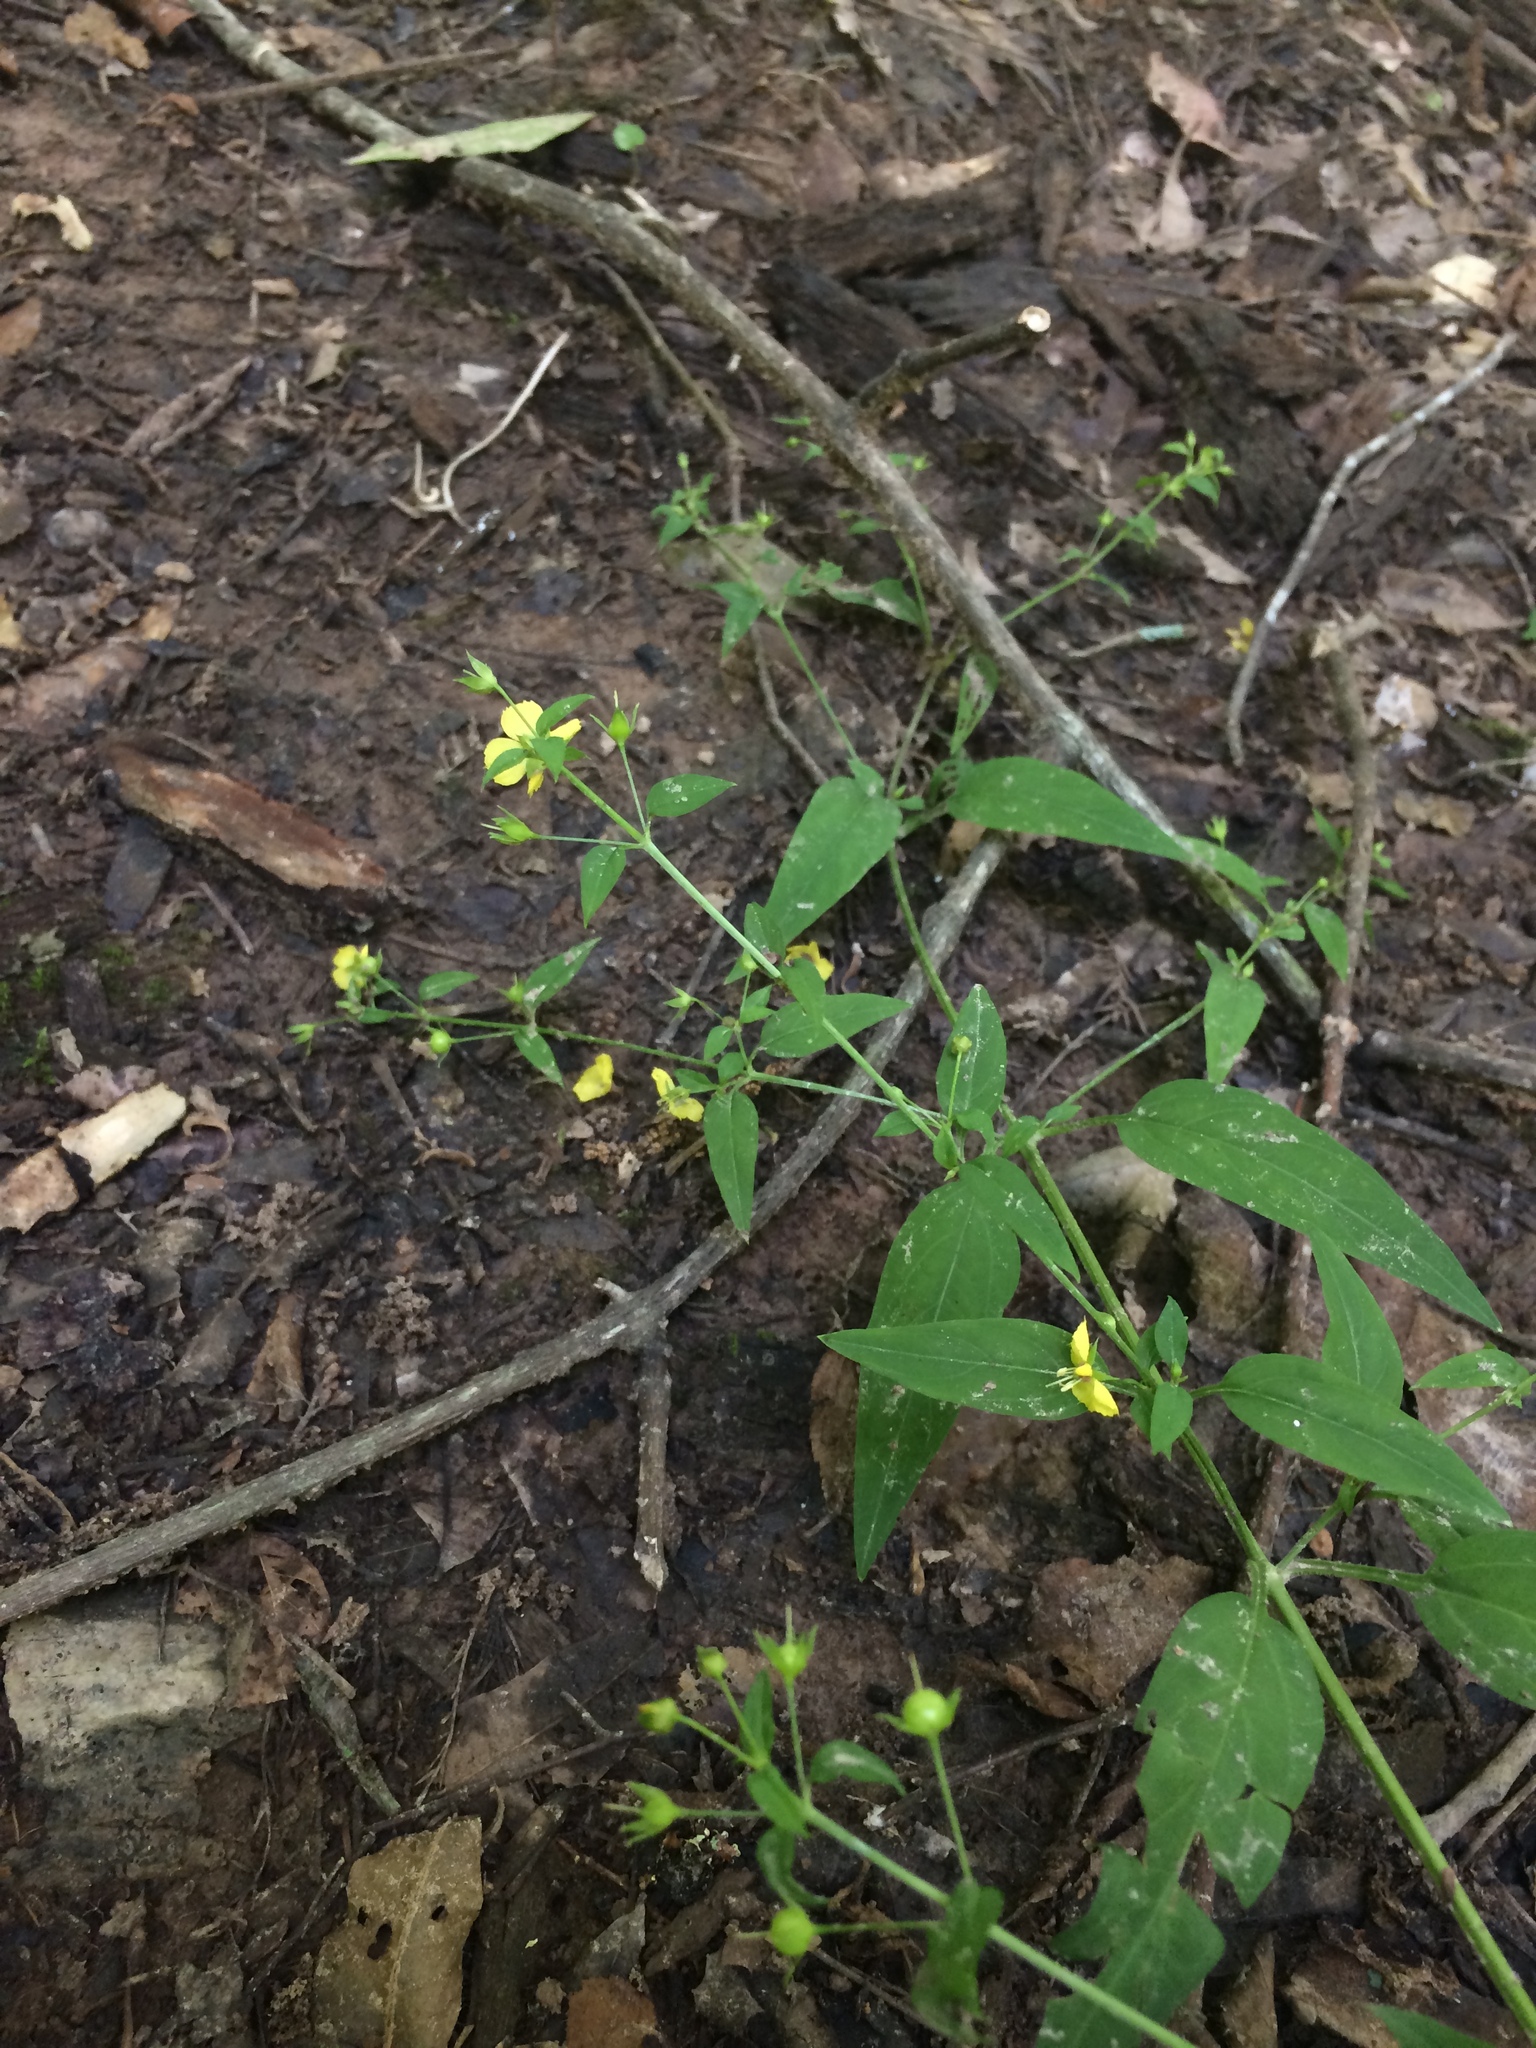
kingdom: Plantae
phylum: Tracheophyta
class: Magnoliopsida
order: Ericales
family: Primulaceae
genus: Lysimachia
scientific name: Lysimachia radicans
